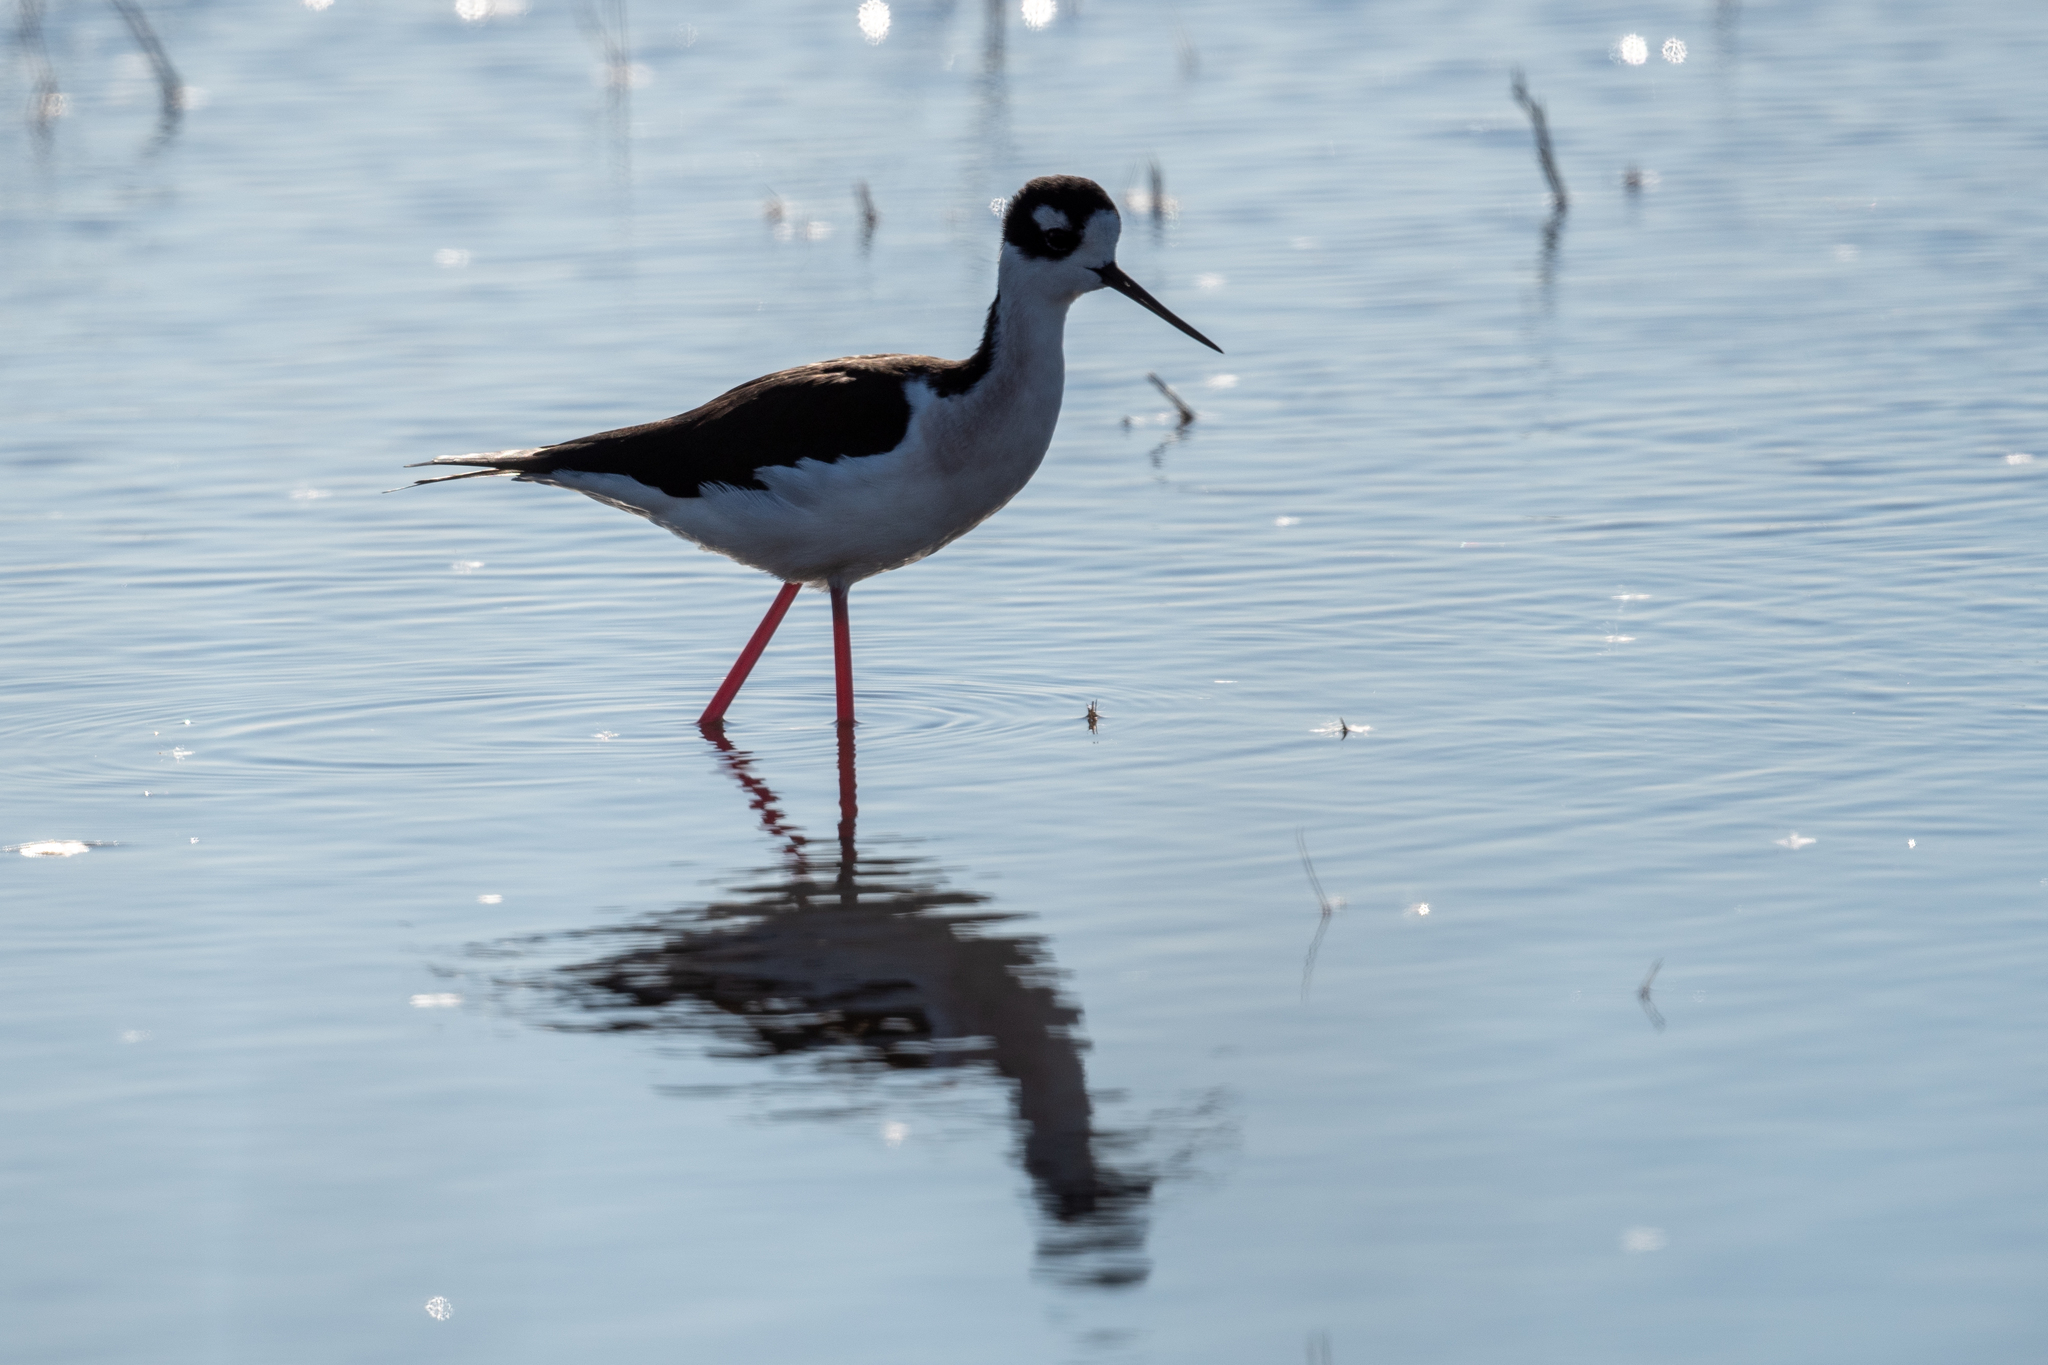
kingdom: Animalia
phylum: Chordata
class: Aves
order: Charadriiformes
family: Recurvirostridae
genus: Himantopus
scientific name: Himantopus mexicanus
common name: Black-necked stilt
